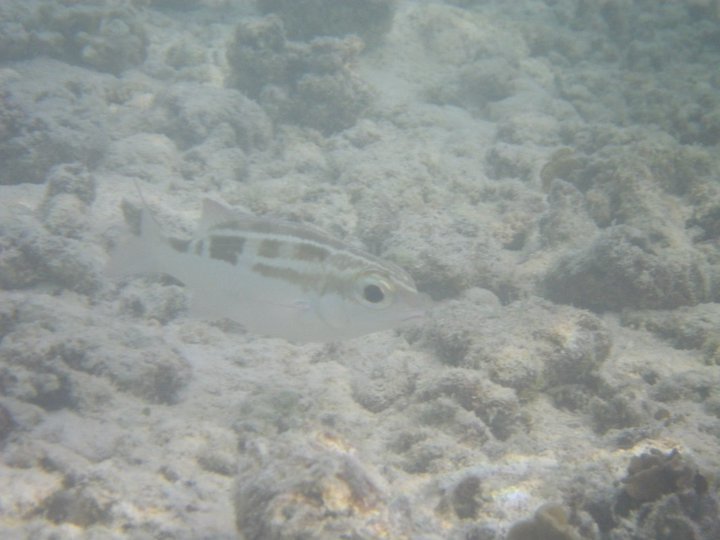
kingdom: Animalia
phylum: Chordata
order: Perciformes
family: Nemipteridae
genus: Scolopsis
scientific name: Scolopsis lineata
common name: Striped monocle bream
